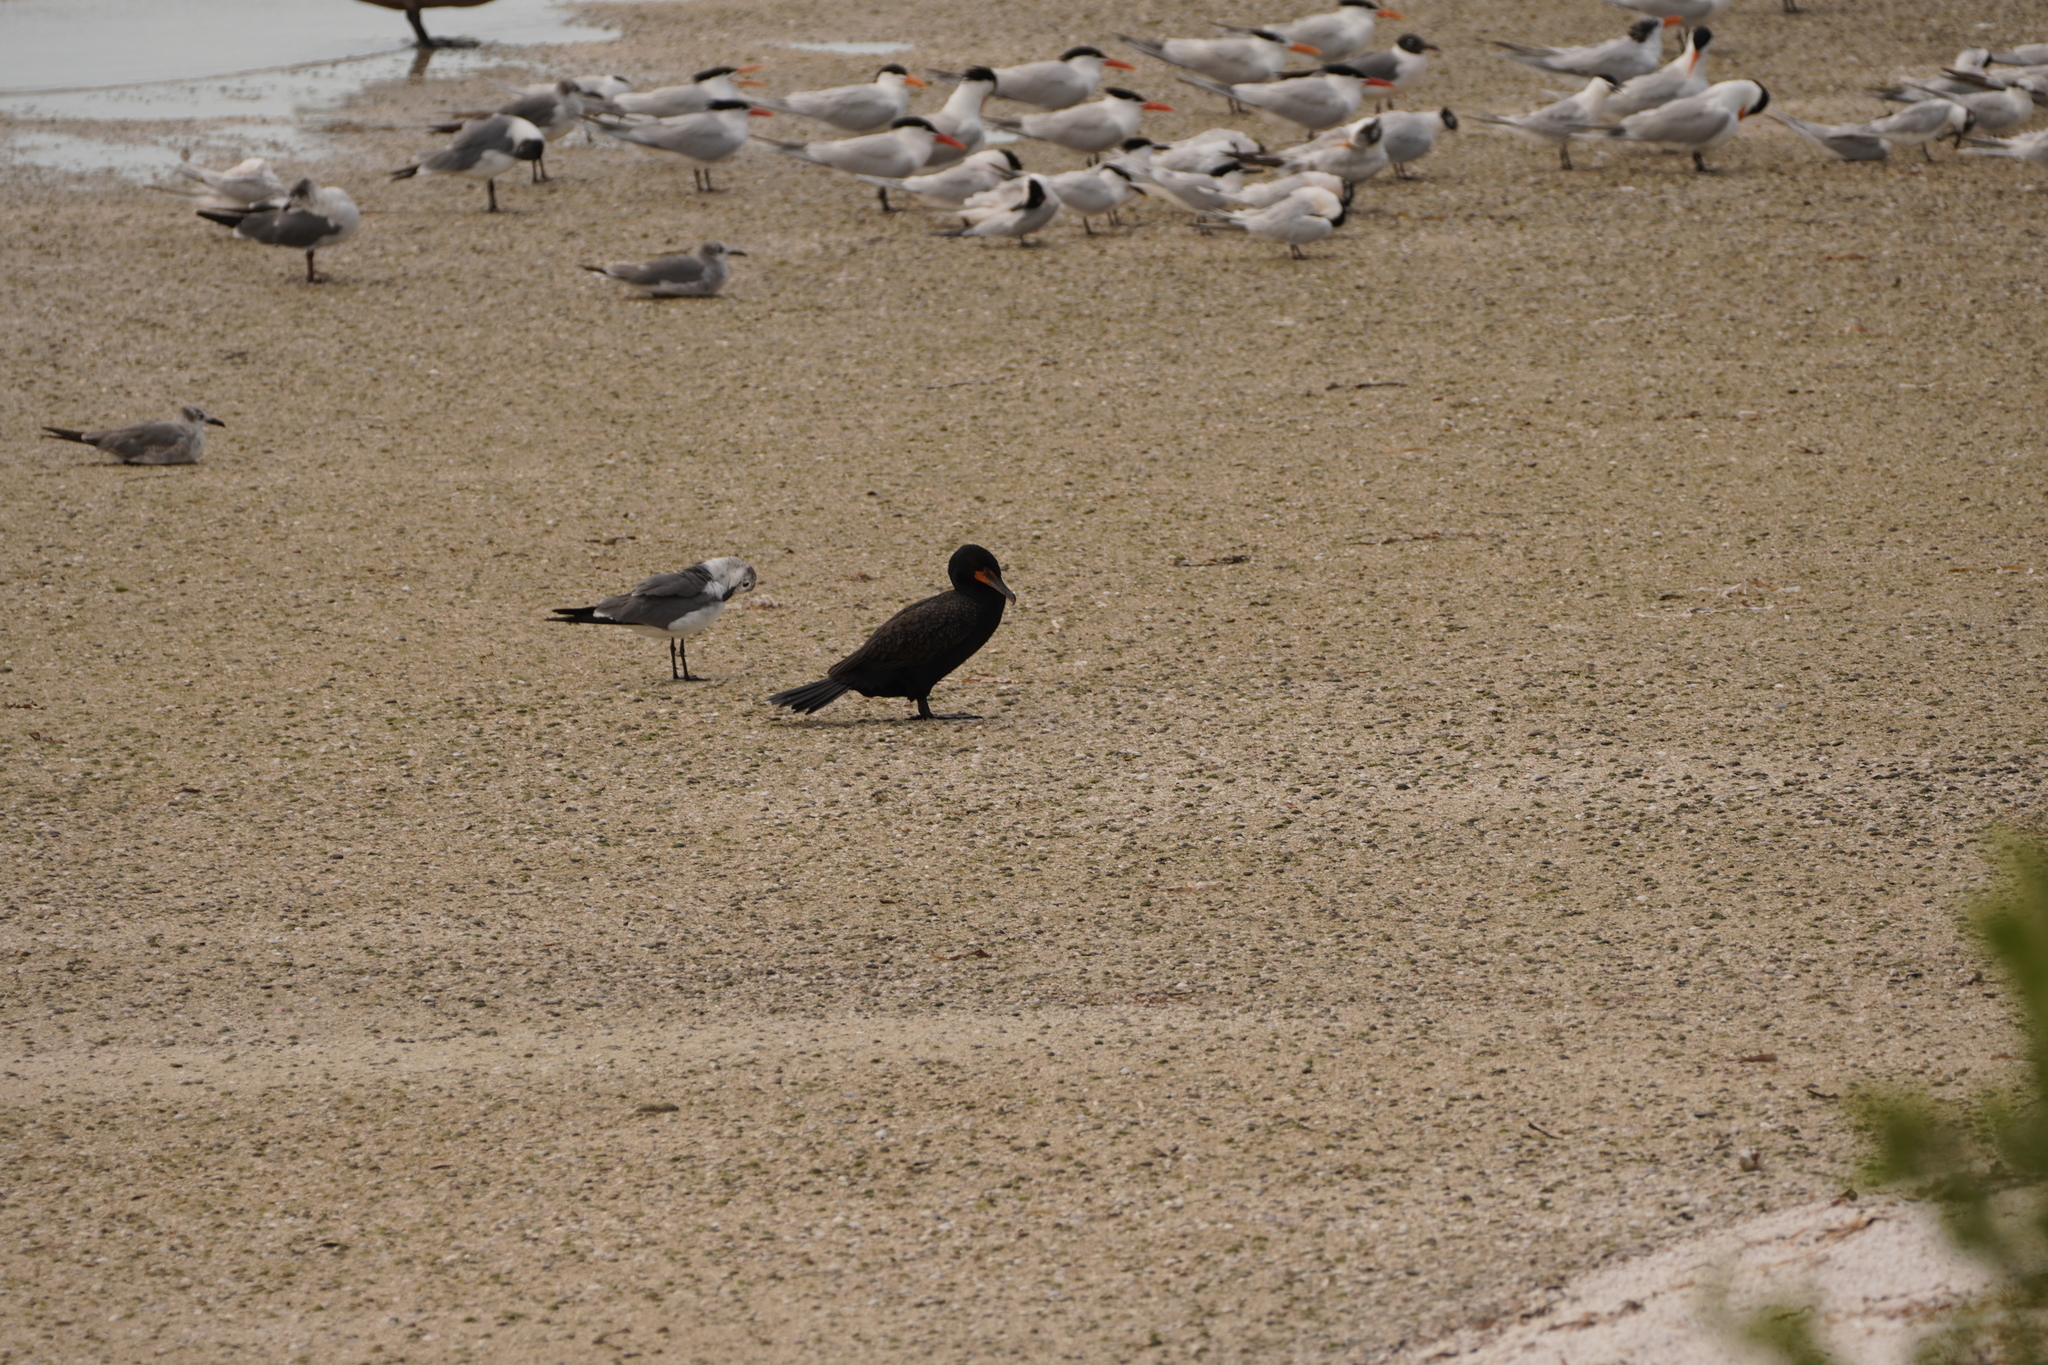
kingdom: Animalia
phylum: Chordata
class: Aves
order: Suliformes
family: Phalacrocoracidae
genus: Phalacrocorax
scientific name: Phalacrocorax auritus
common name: Double-crested cormorant
